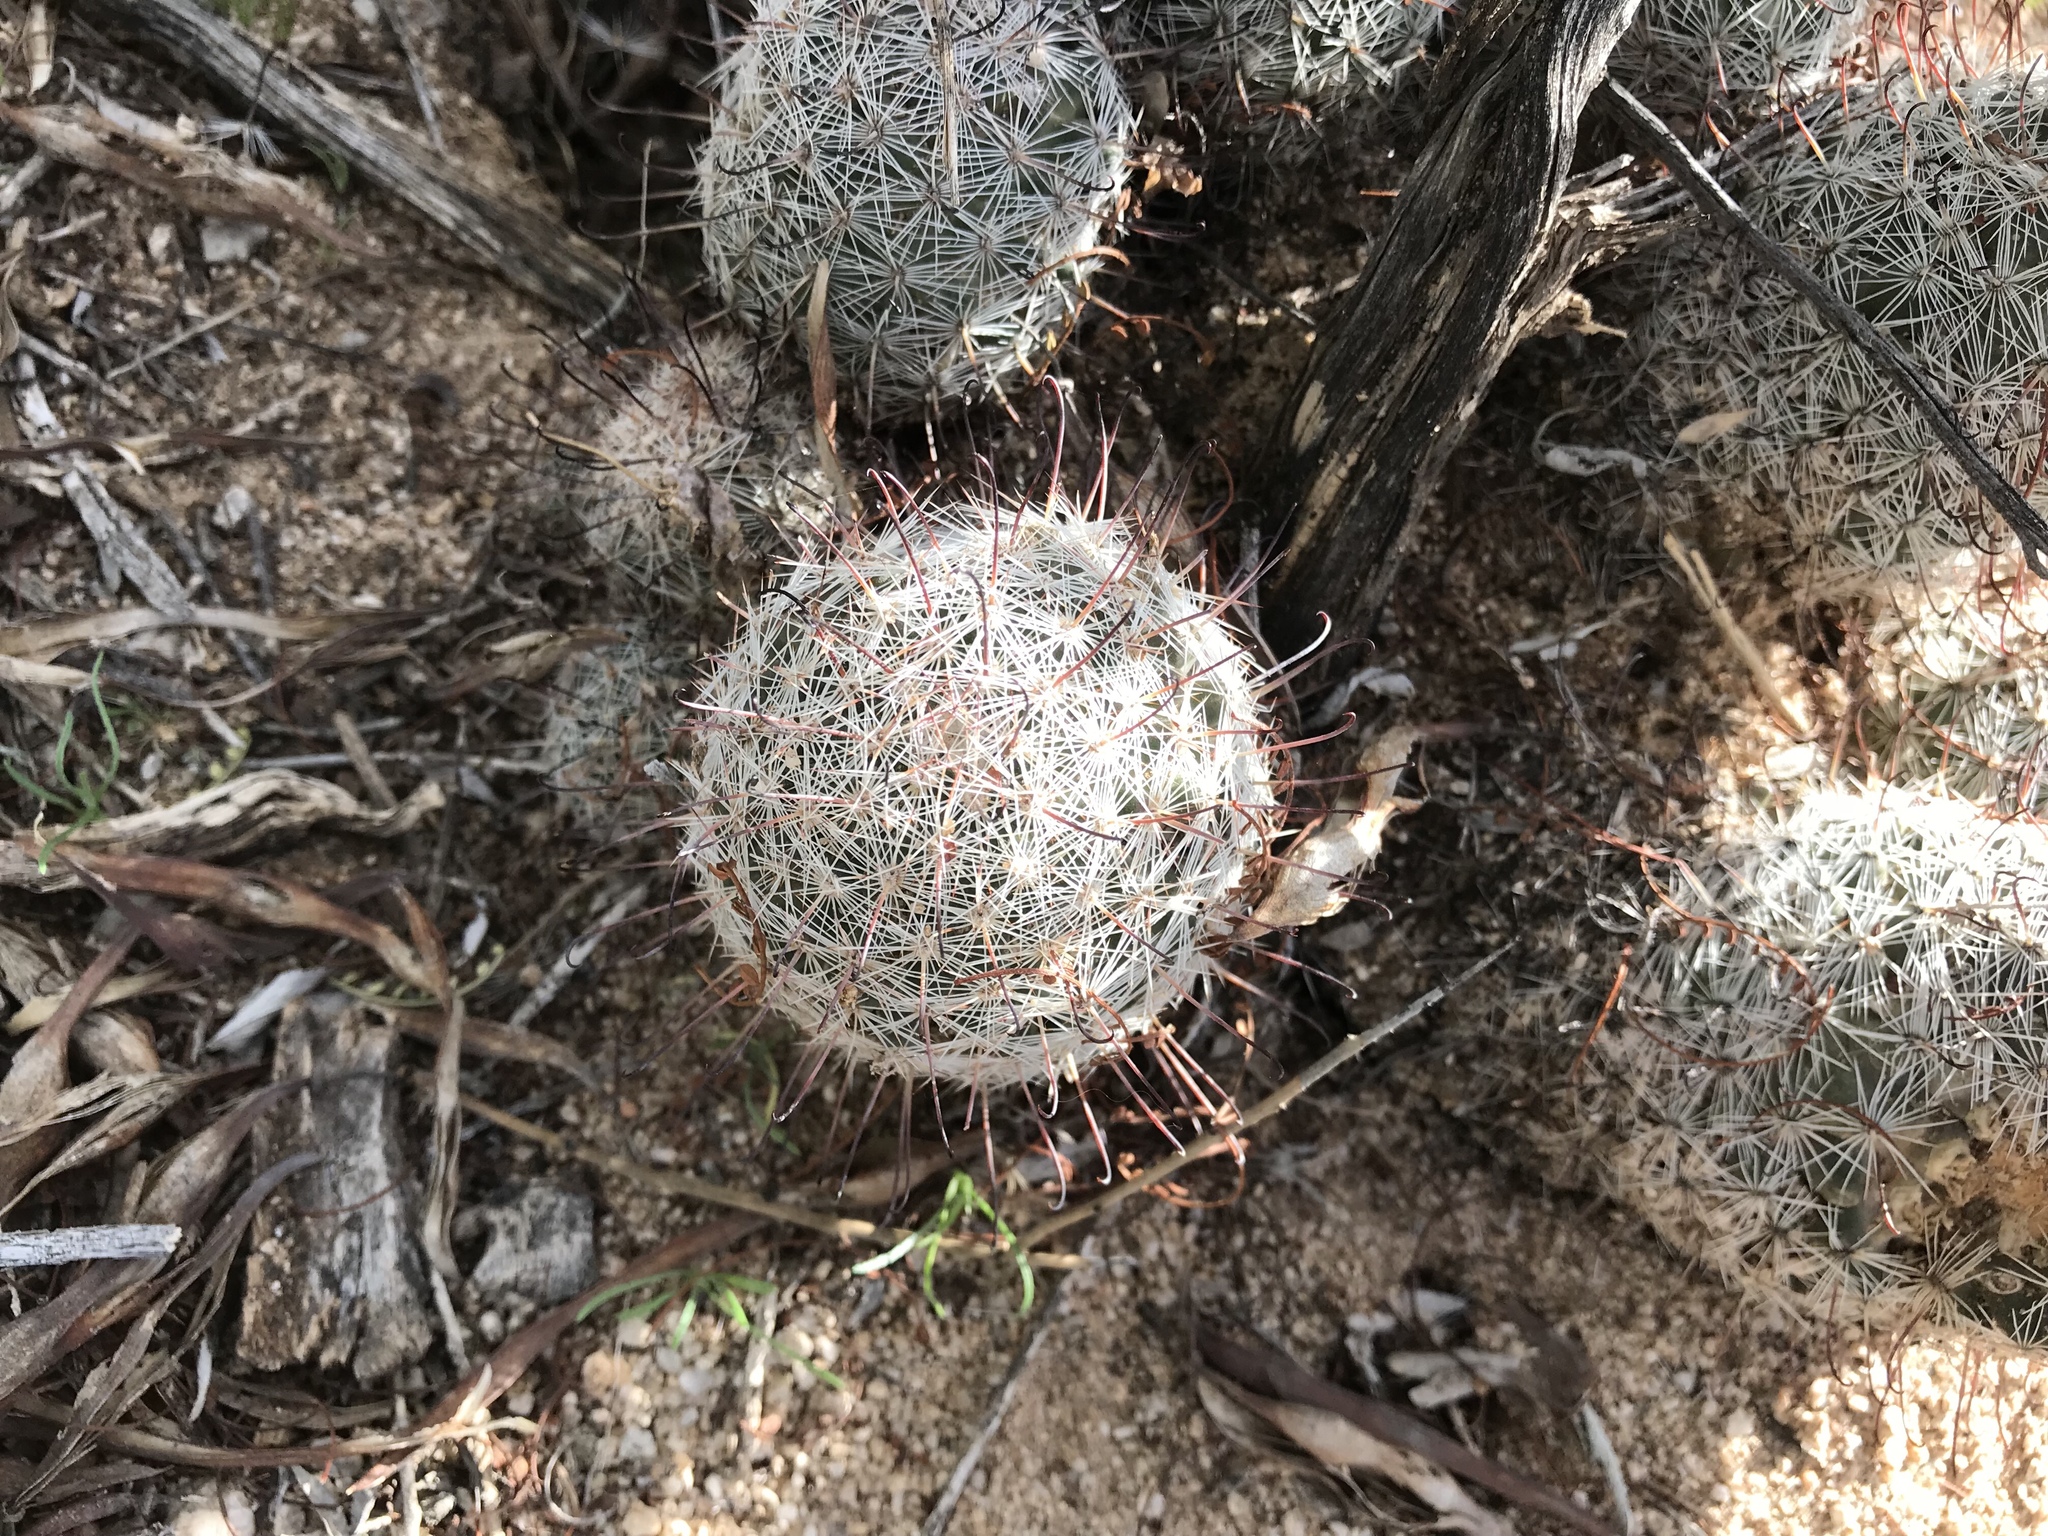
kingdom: Plantae
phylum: Tracheophyta
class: Magnoliopsida
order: Caryophyllales
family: Cactaceae
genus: Cochemiea
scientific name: Cochemiea grahamii
